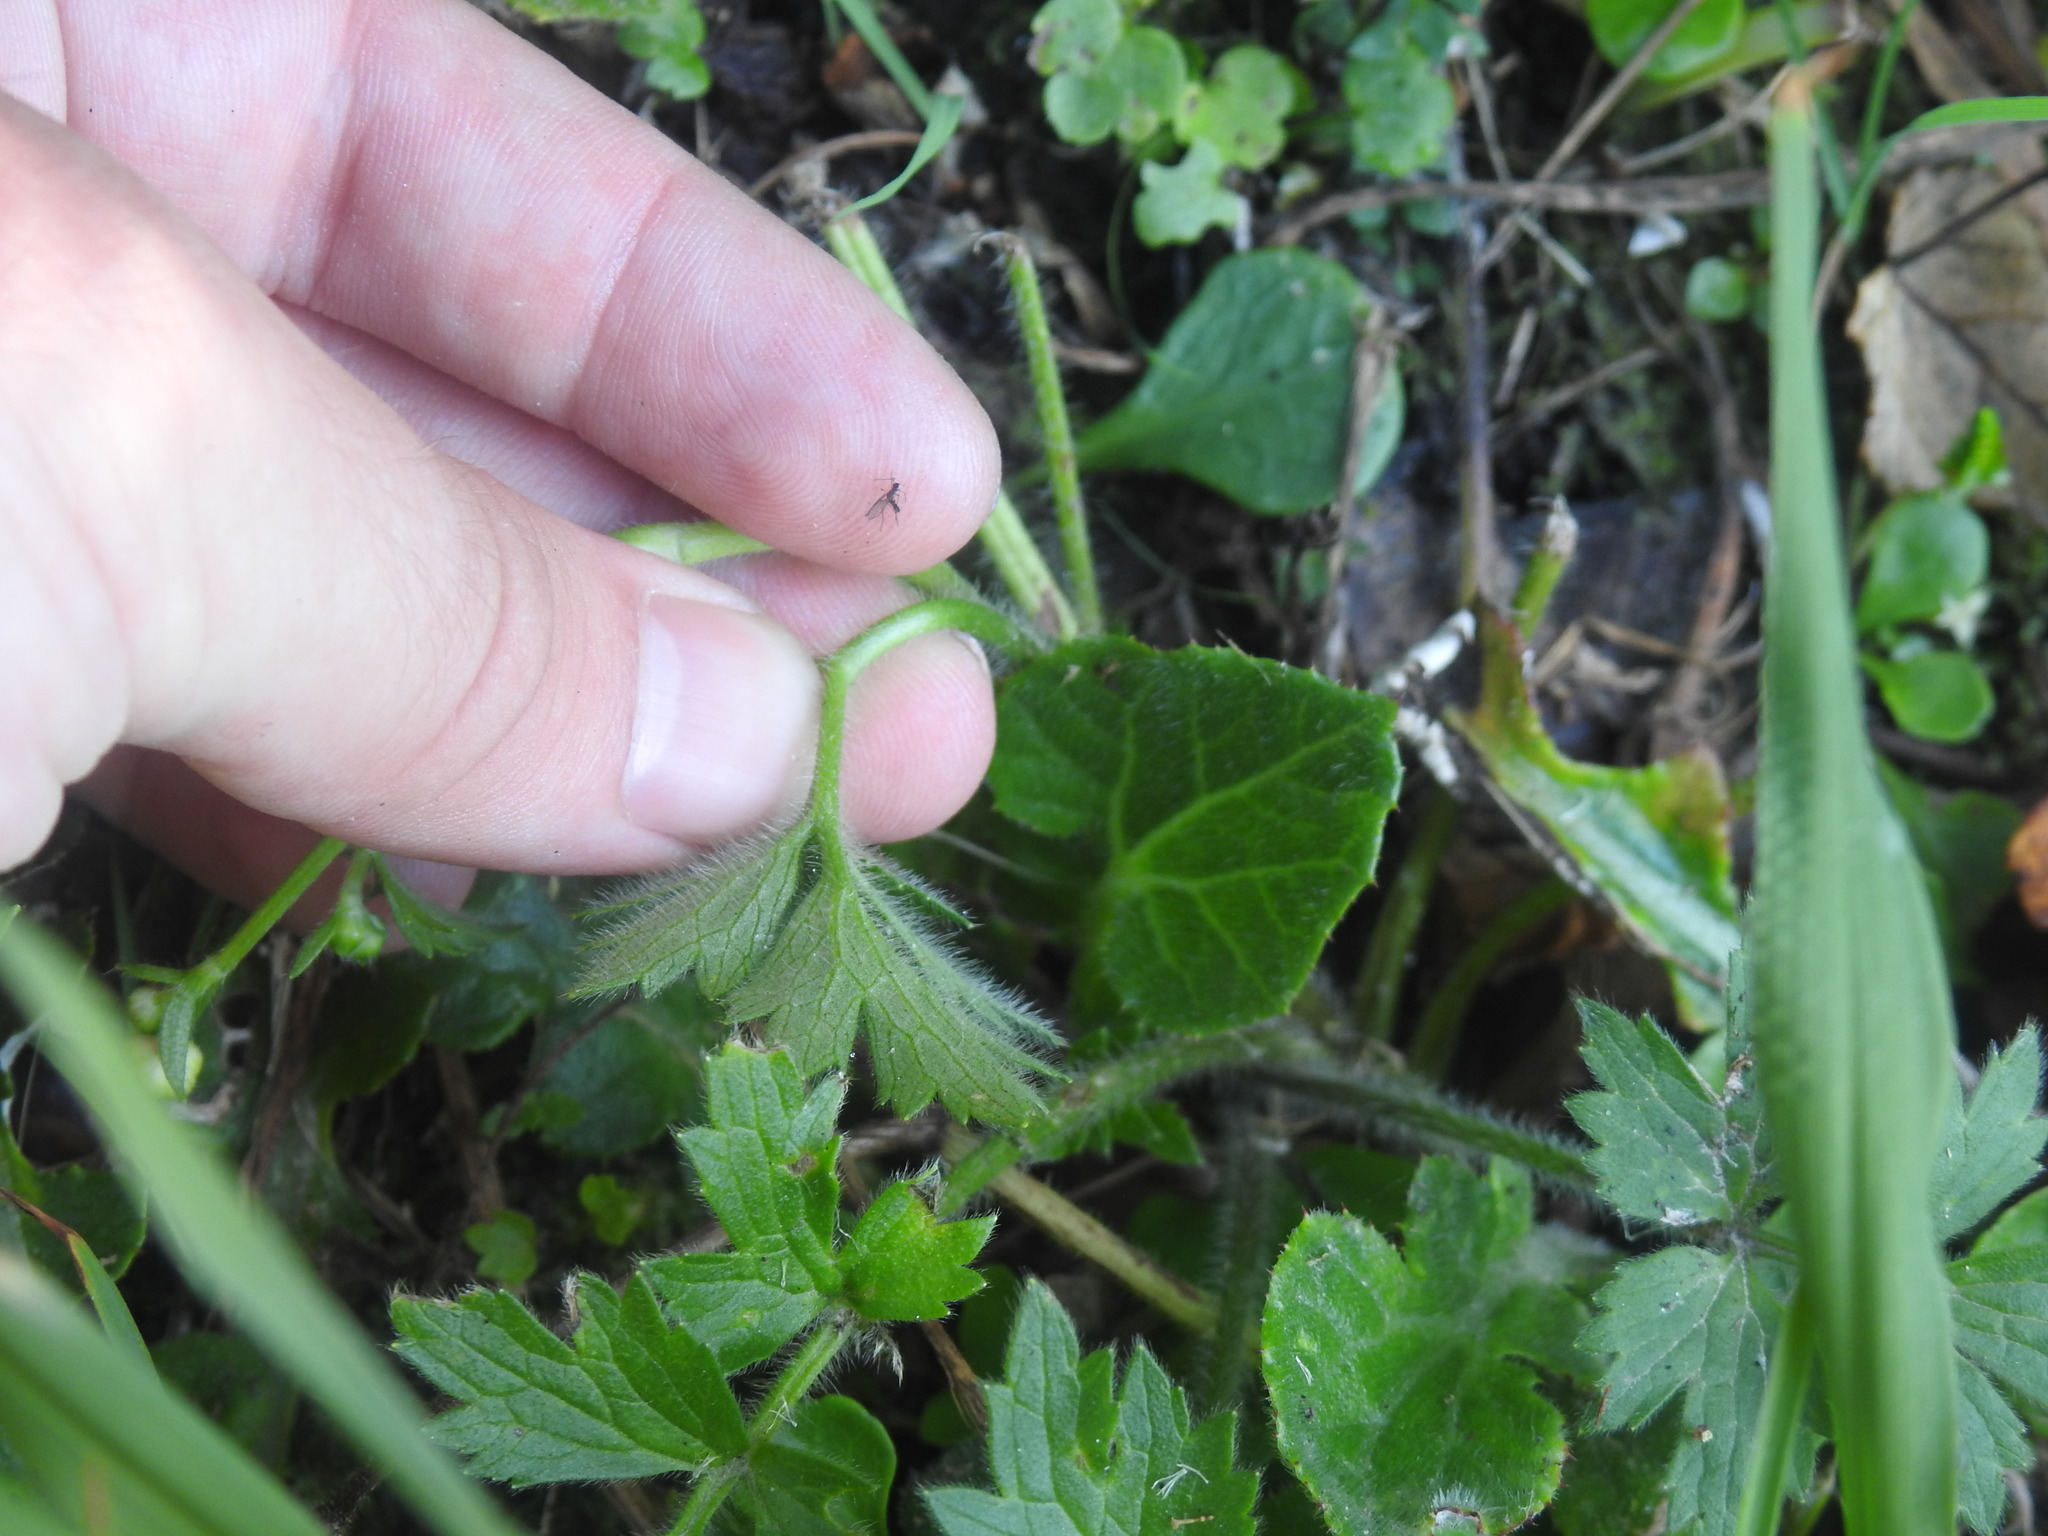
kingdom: Plantae
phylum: Tracheophyta
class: Magnoliopsida
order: Ranunculales
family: Ranunculaceae
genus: Ranunculus
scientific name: Ranunculus multifidus
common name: Wild buttercup
